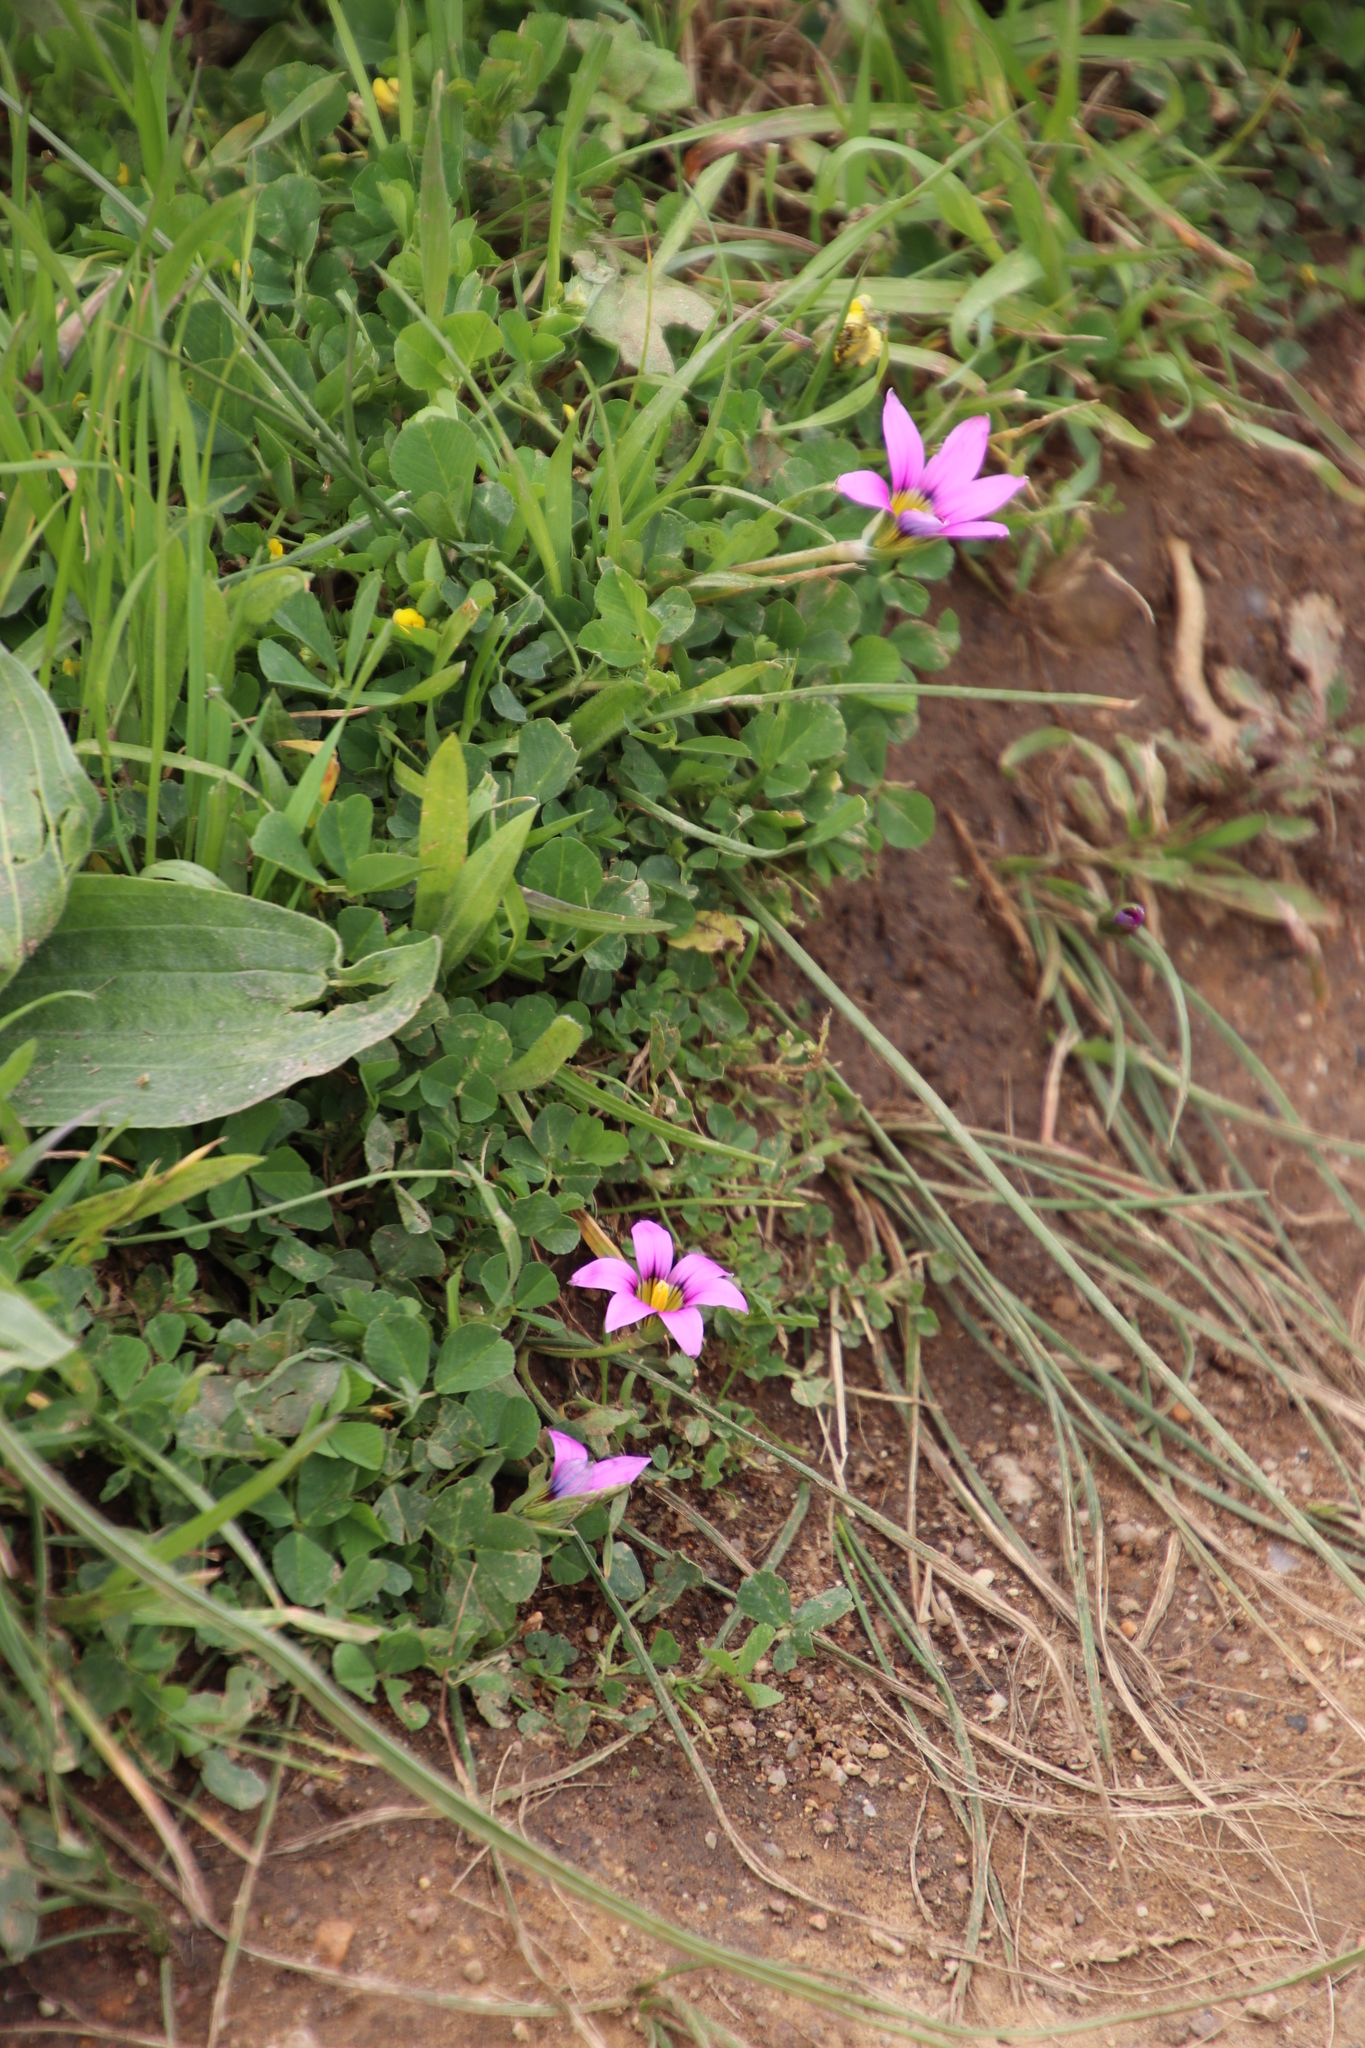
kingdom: Plantae
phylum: Tracheophyta
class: Liliopsida
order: Asparagales
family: Iridaceae
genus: Romulea
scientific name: Romulea rosea
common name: Oniongrass
